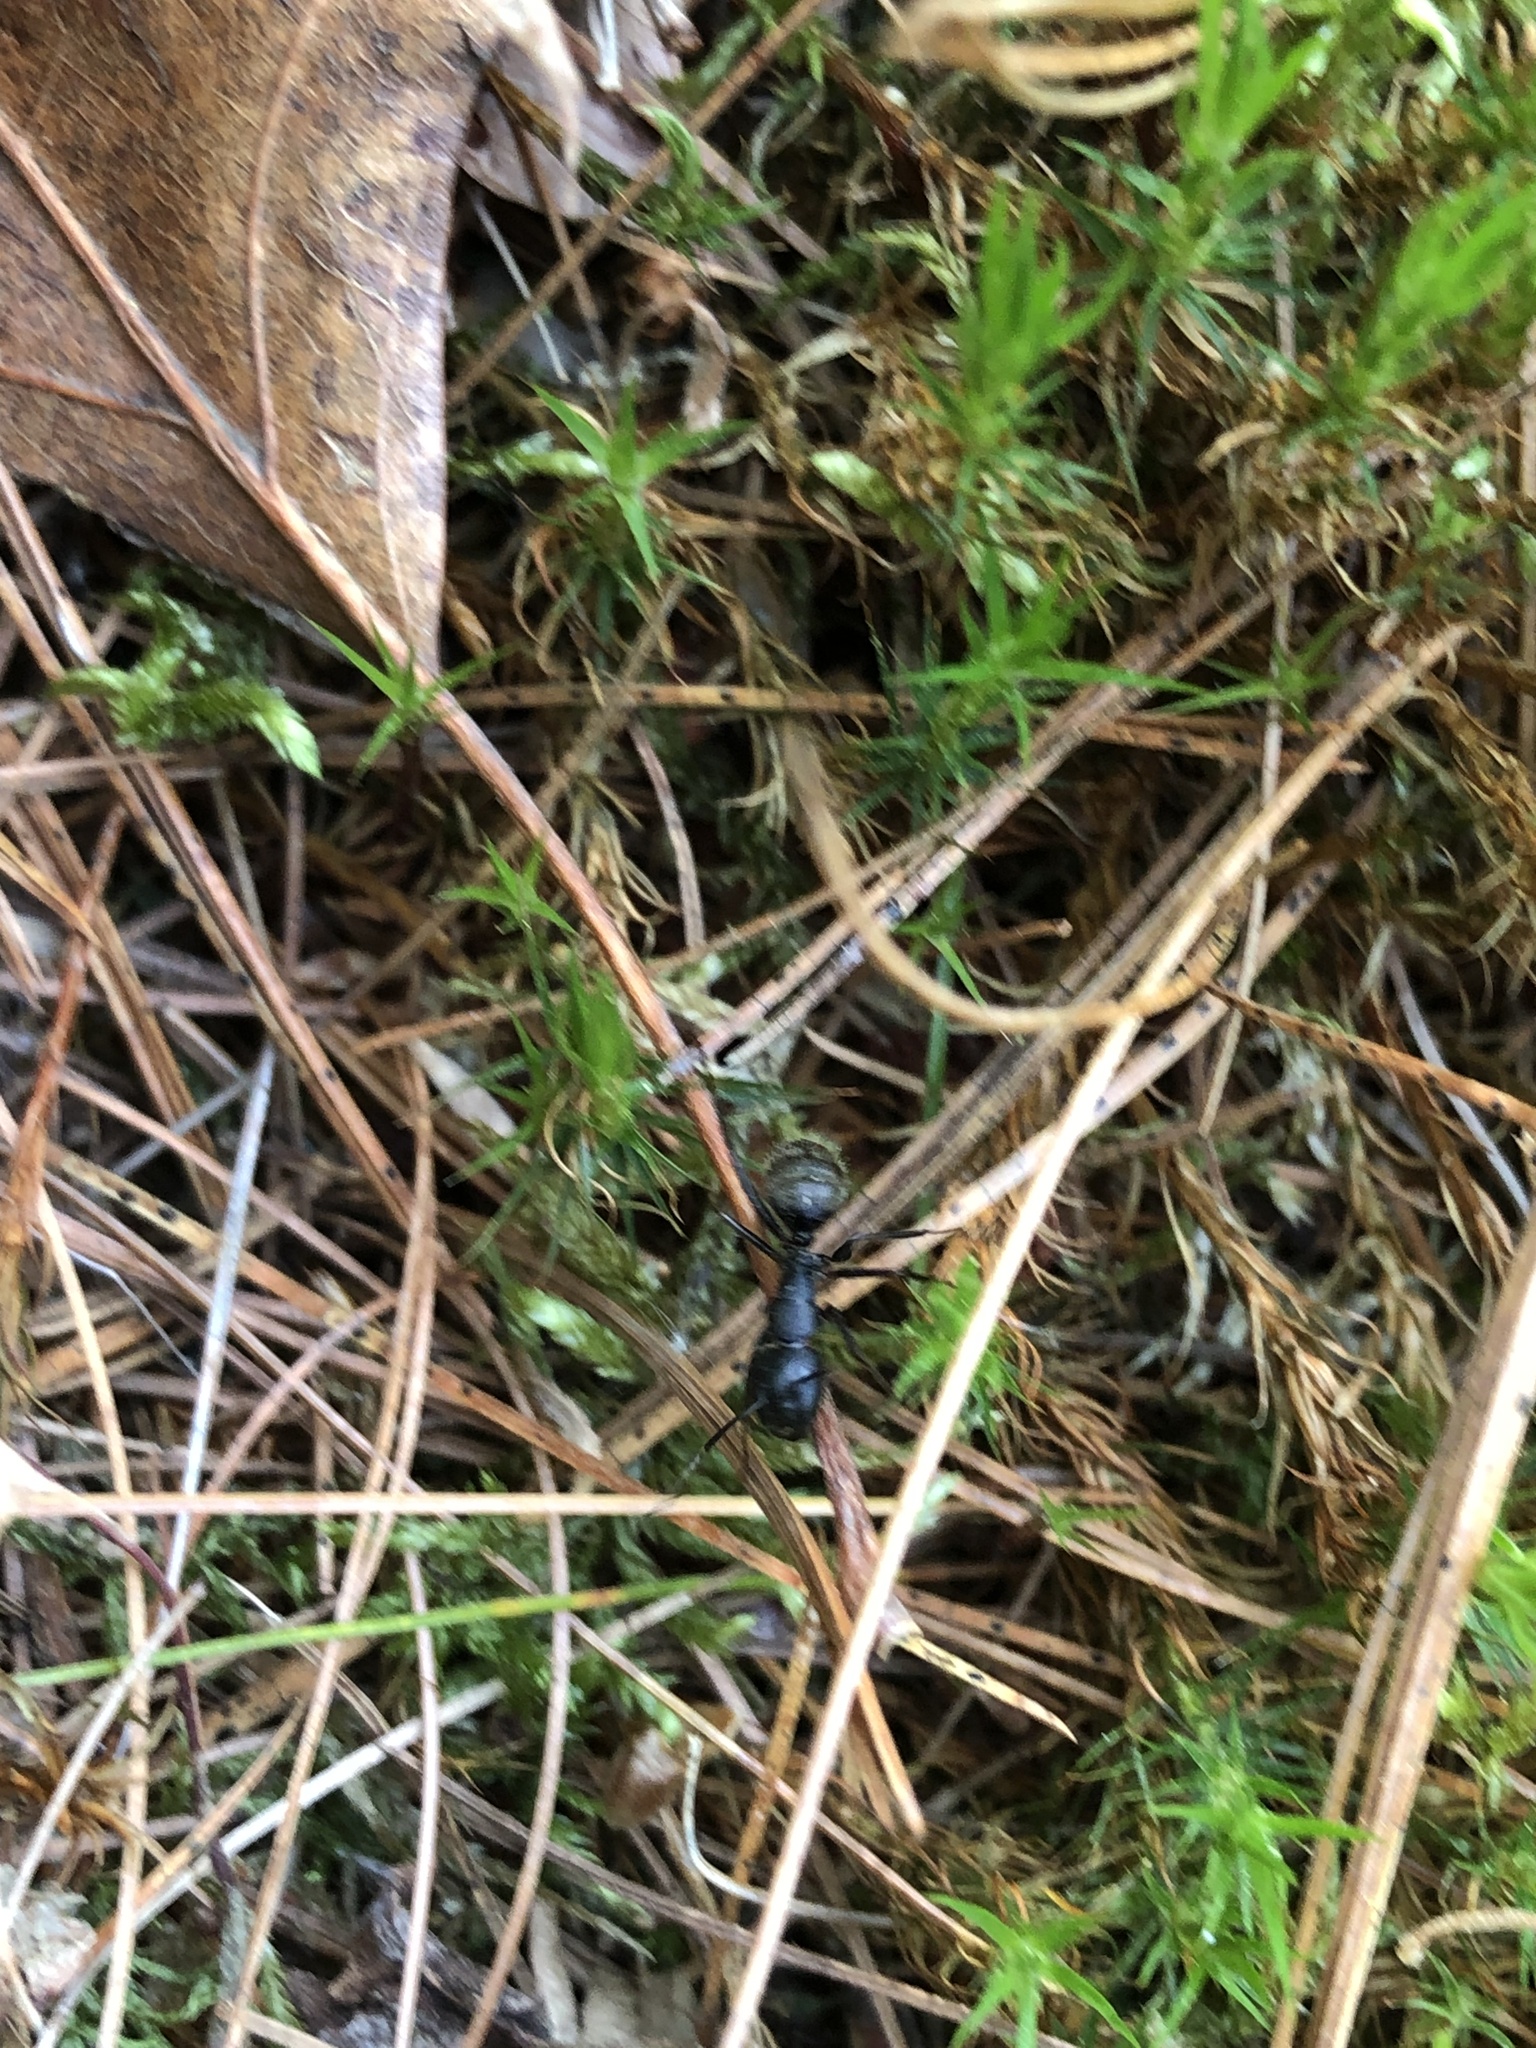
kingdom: Animalia
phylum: Arthropoda
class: Insecta
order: Hymenoptera
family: Formicidae
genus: Camponotus
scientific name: Camponotus pennsylvanicus
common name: Black carpenter ant
